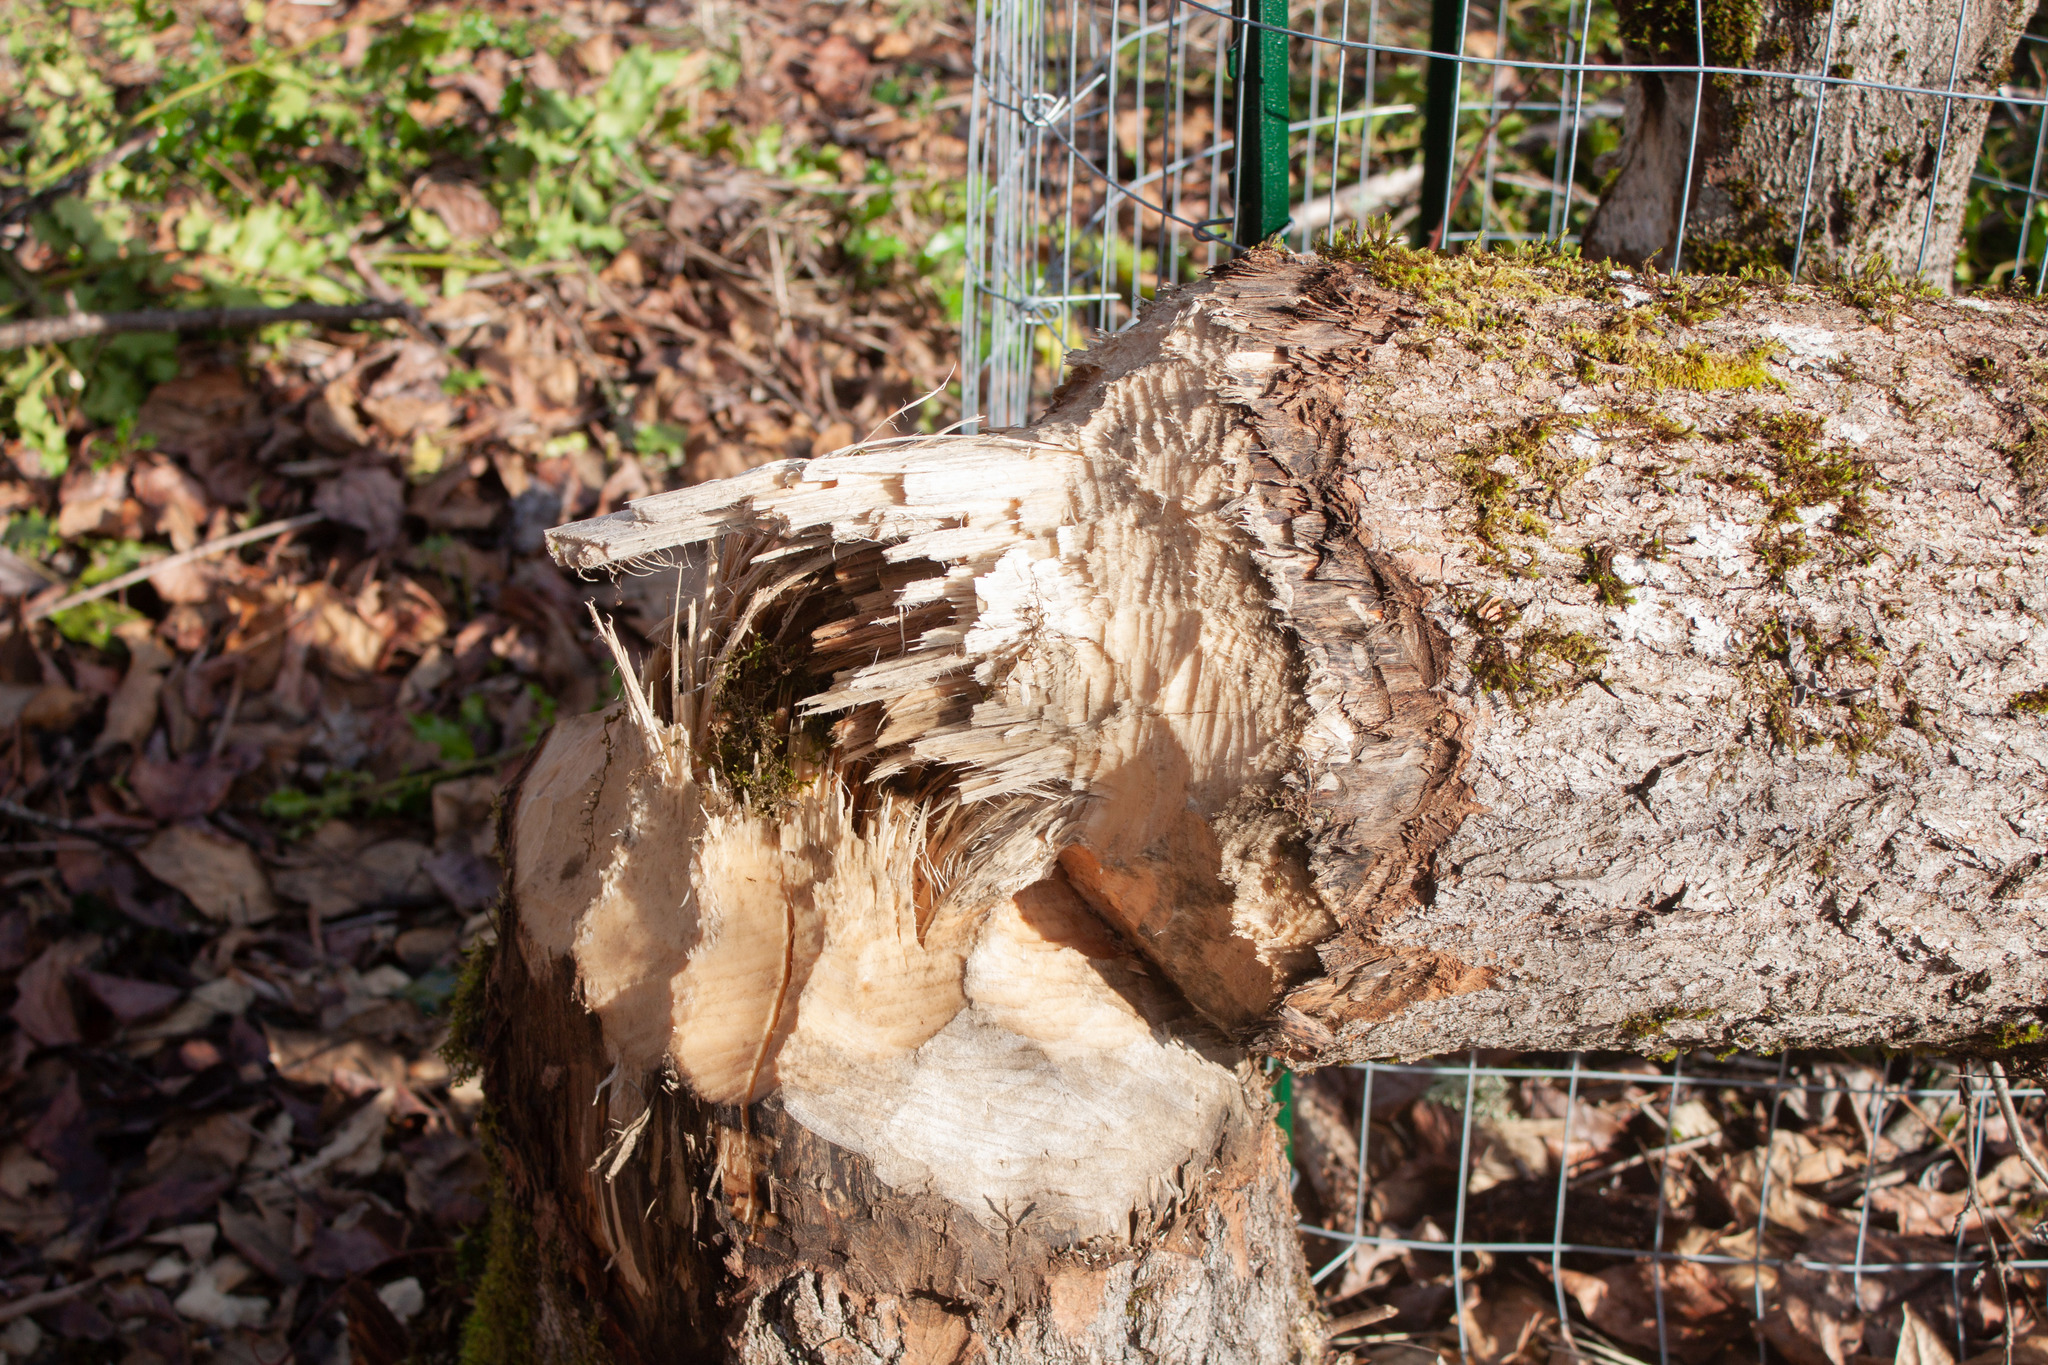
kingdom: Animalia
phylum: Chordata
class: Mammalia
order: Rodentia
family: Castoridae
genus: Castor
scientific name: Castor canadensis
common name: American beaver
